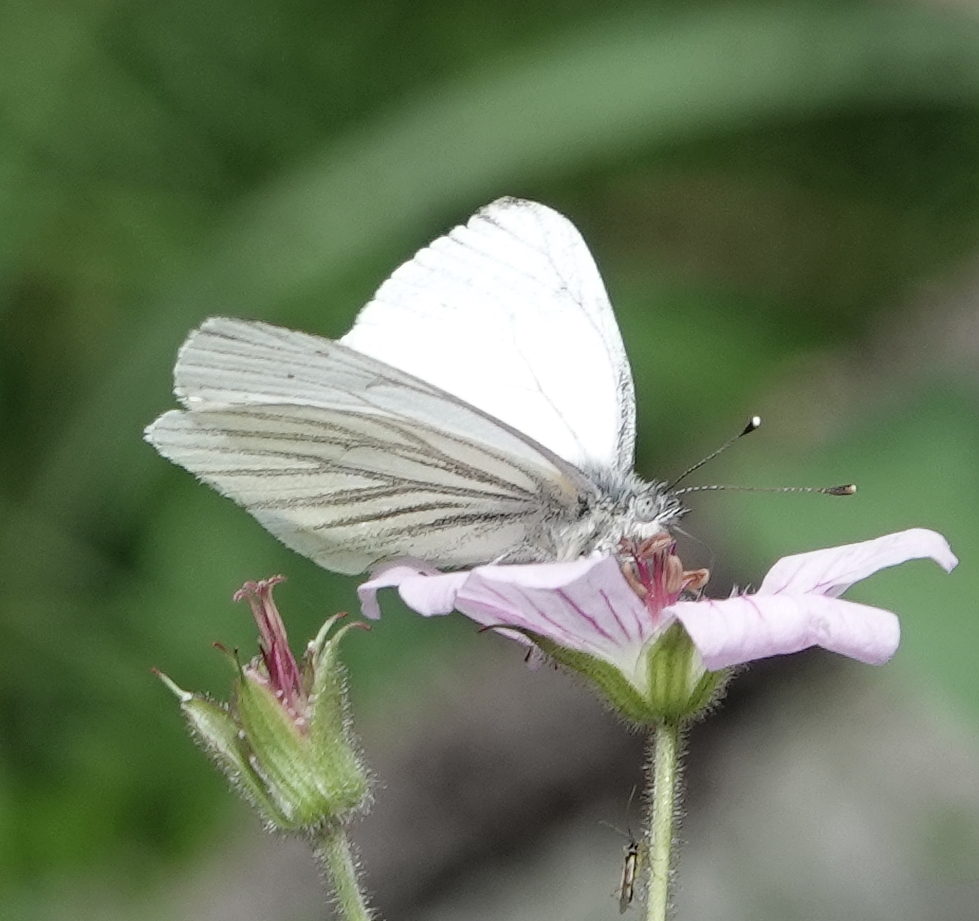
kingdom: Animalia
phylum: Arthropoda
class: Insecta
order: Lepidoptera
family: Pieridae
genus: Pieris
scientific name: Pieris marginalis
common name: Margined white
